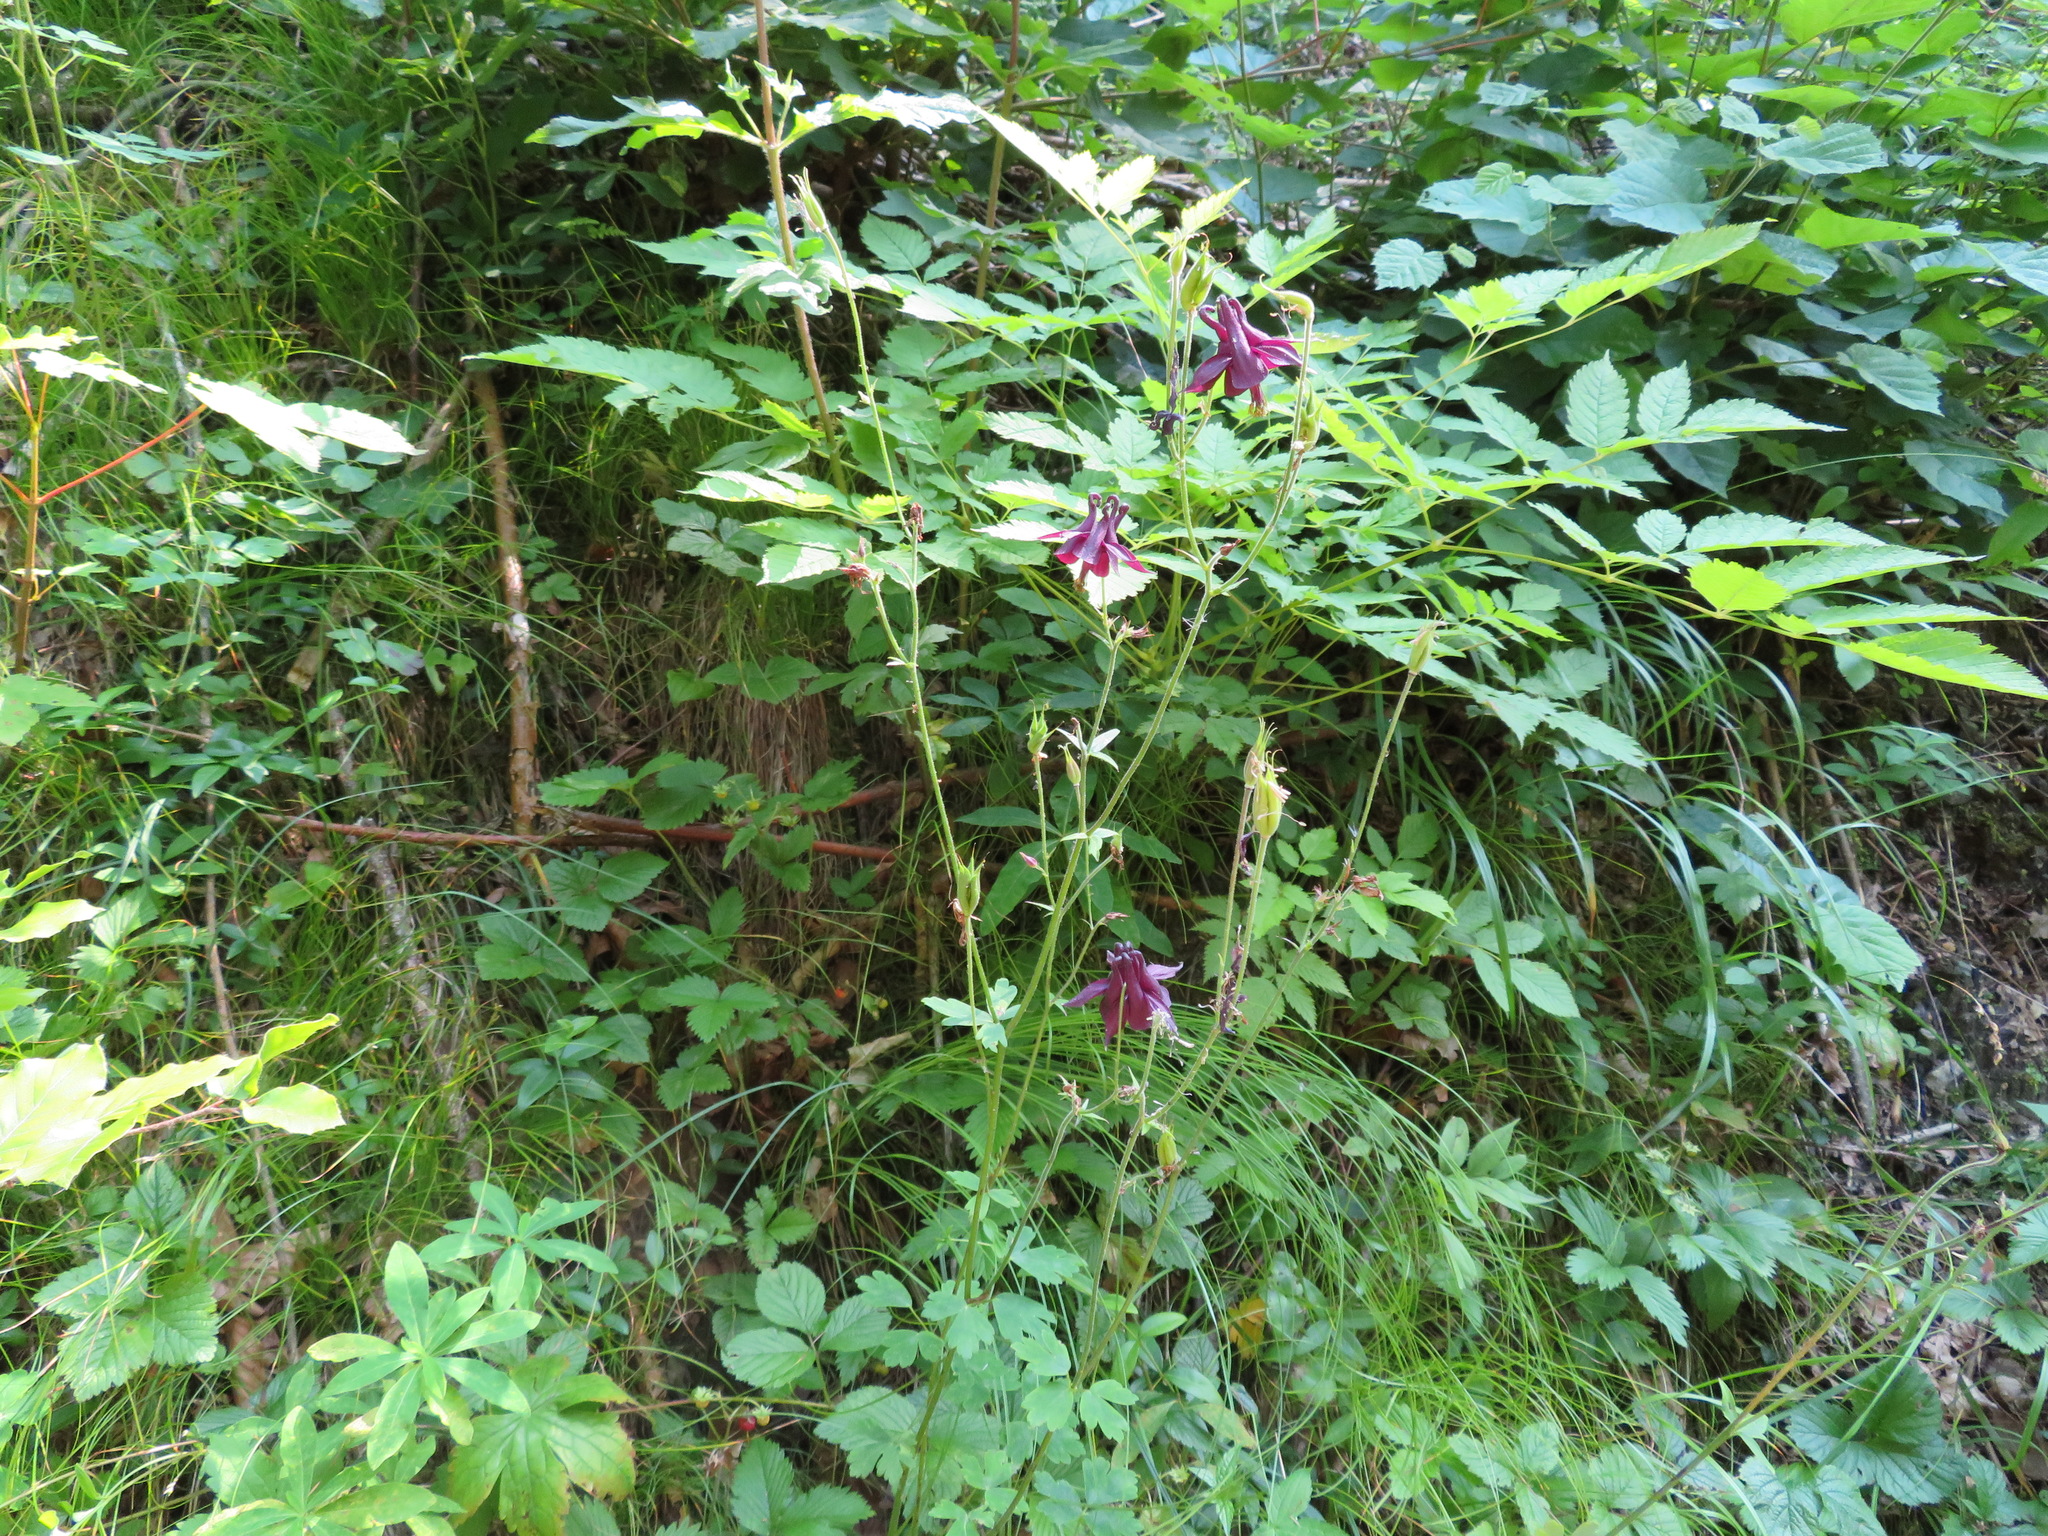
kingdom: Plantae
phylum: Tracheophyta
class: Magnoliopsida
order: Ranunculales
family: Ranunculaceae
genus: Aquilegia
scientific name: Aquilegia atrata
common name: Dark columbine
